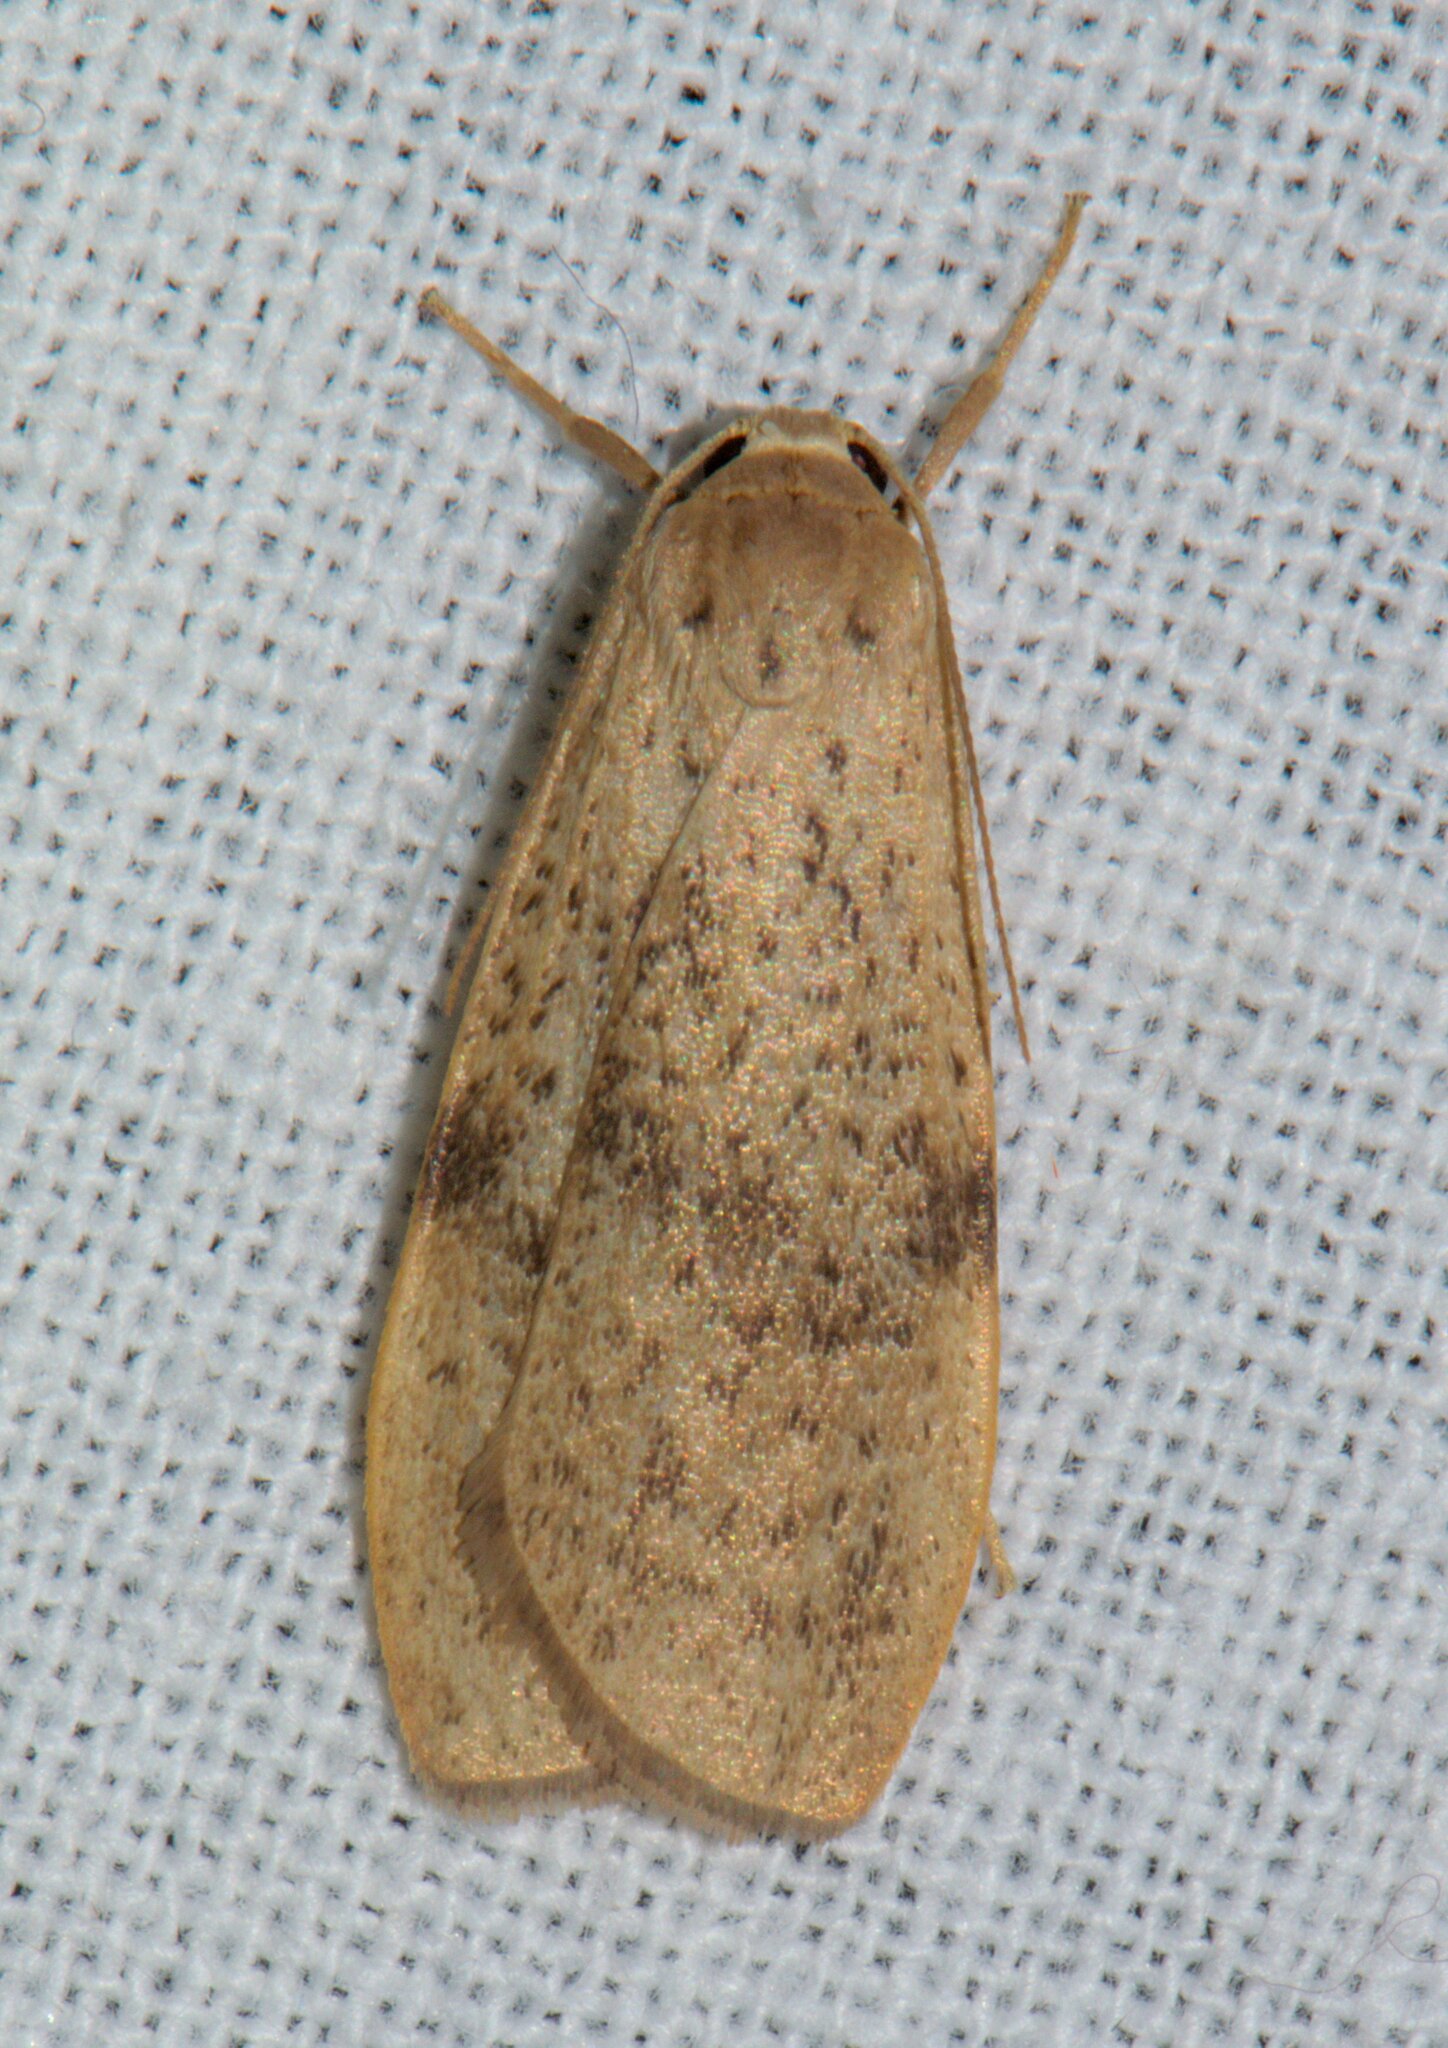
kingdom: Animalia
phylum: Arthropoda
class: Insecta
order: Lepidoptera
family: Erebidae
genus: Dolgoma
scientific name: Dolgoma reticulata
